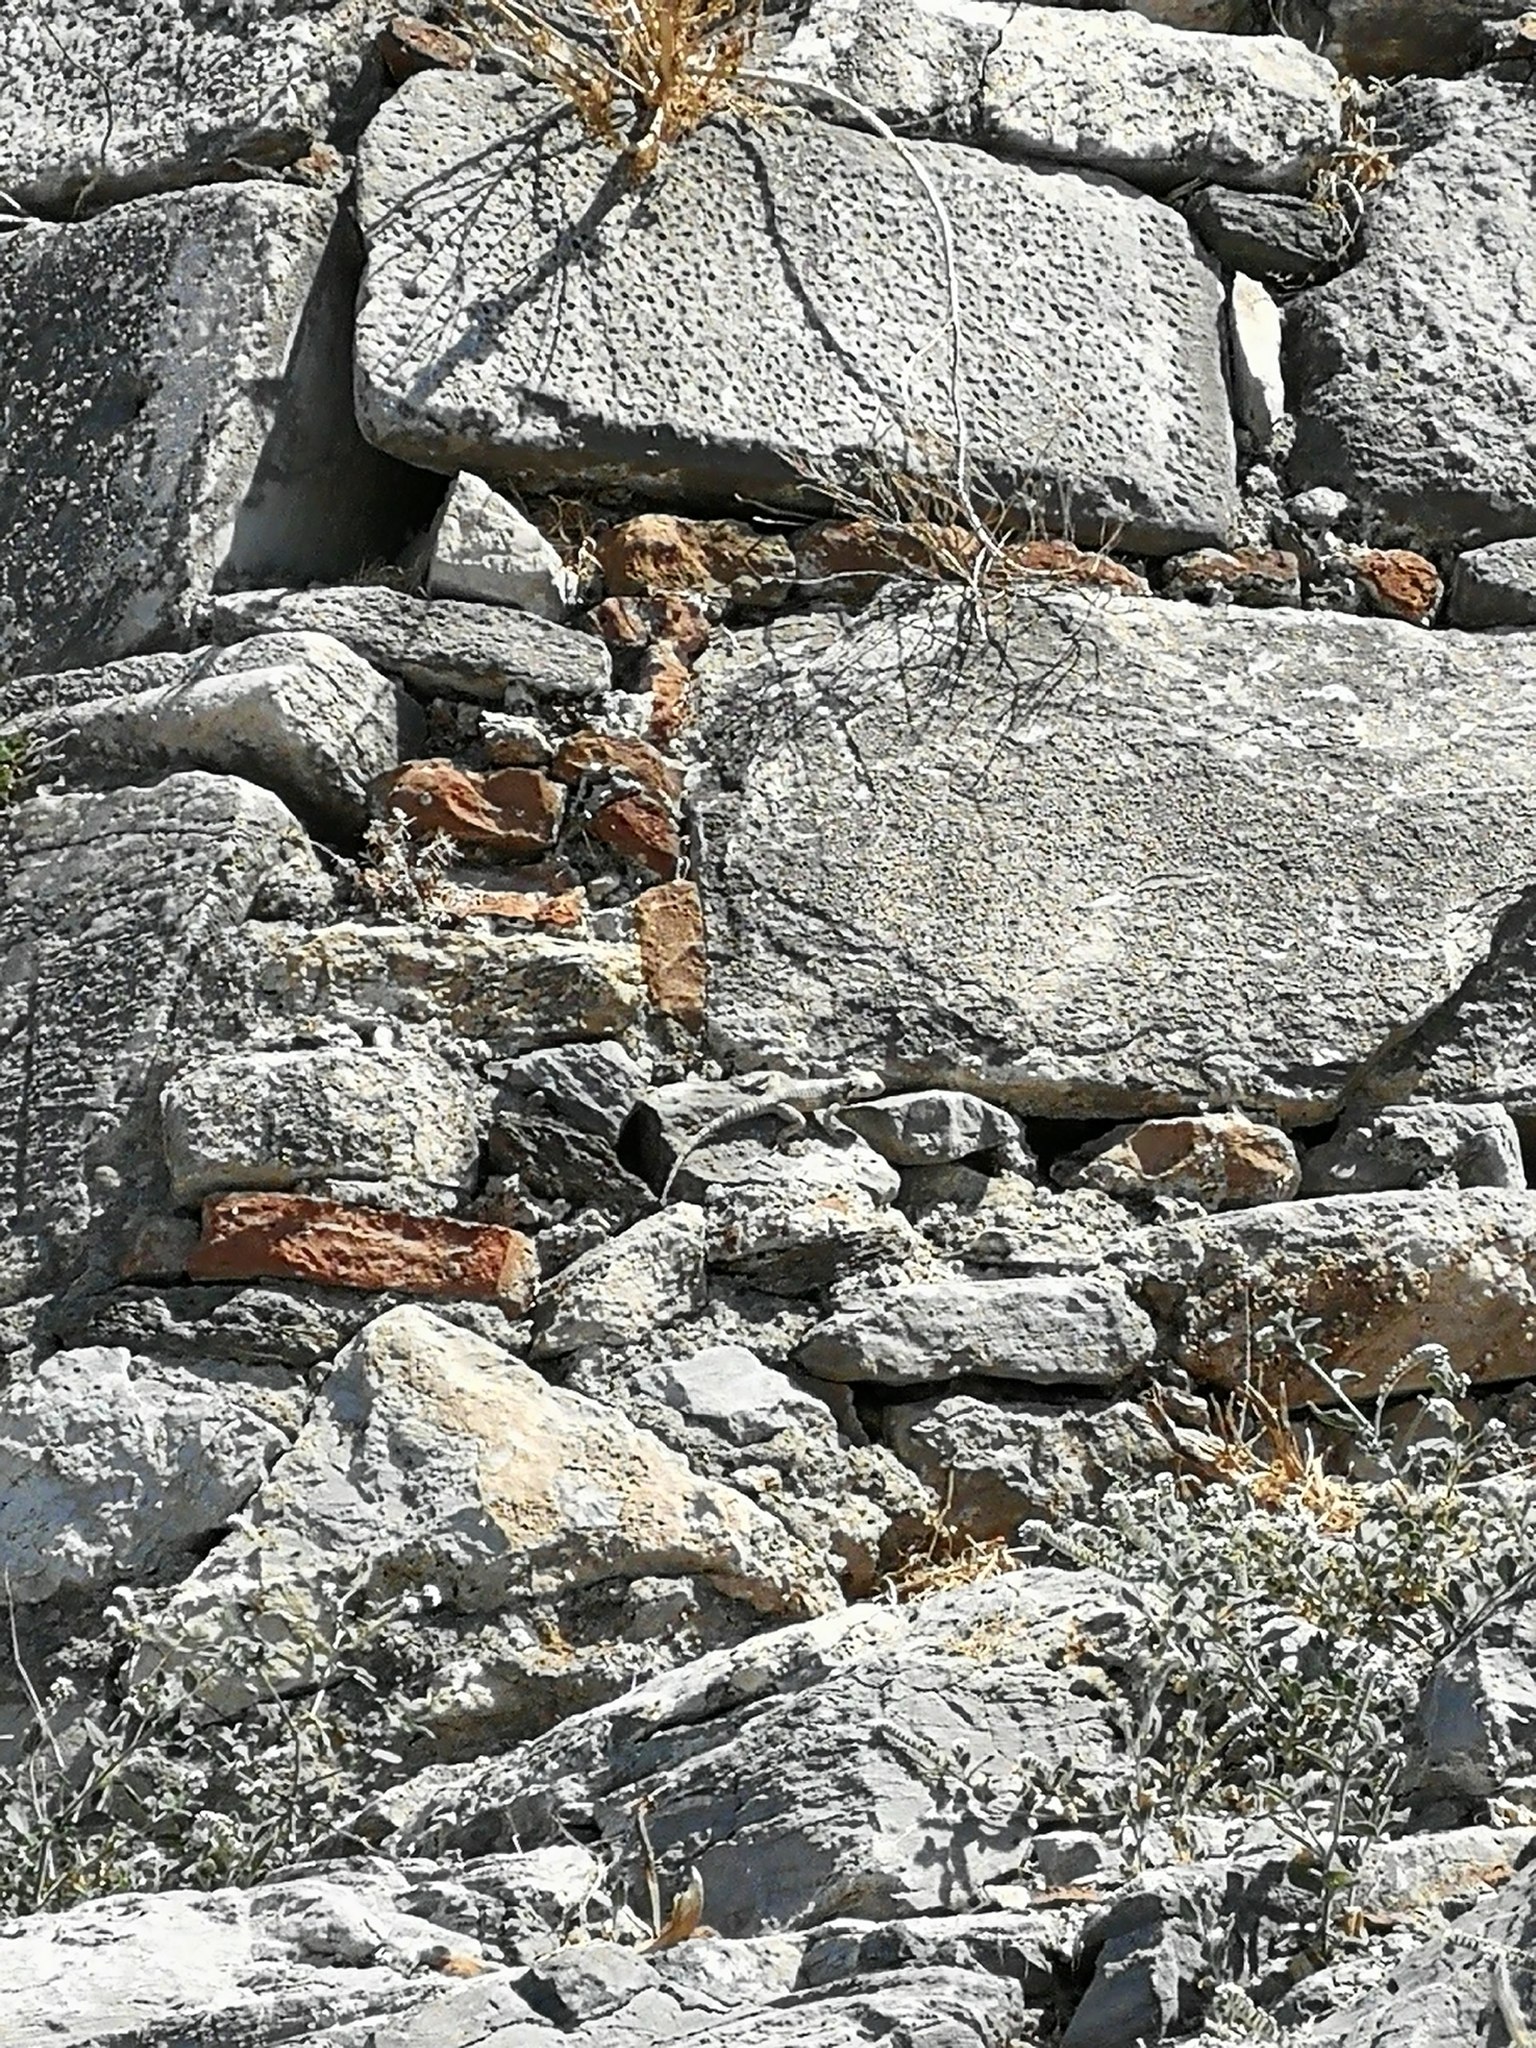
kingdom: Animalia
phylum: Chordata
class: Squamata
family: Agamidae
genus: Stellagama
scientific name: Stellagama stellio
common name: Starred agama
